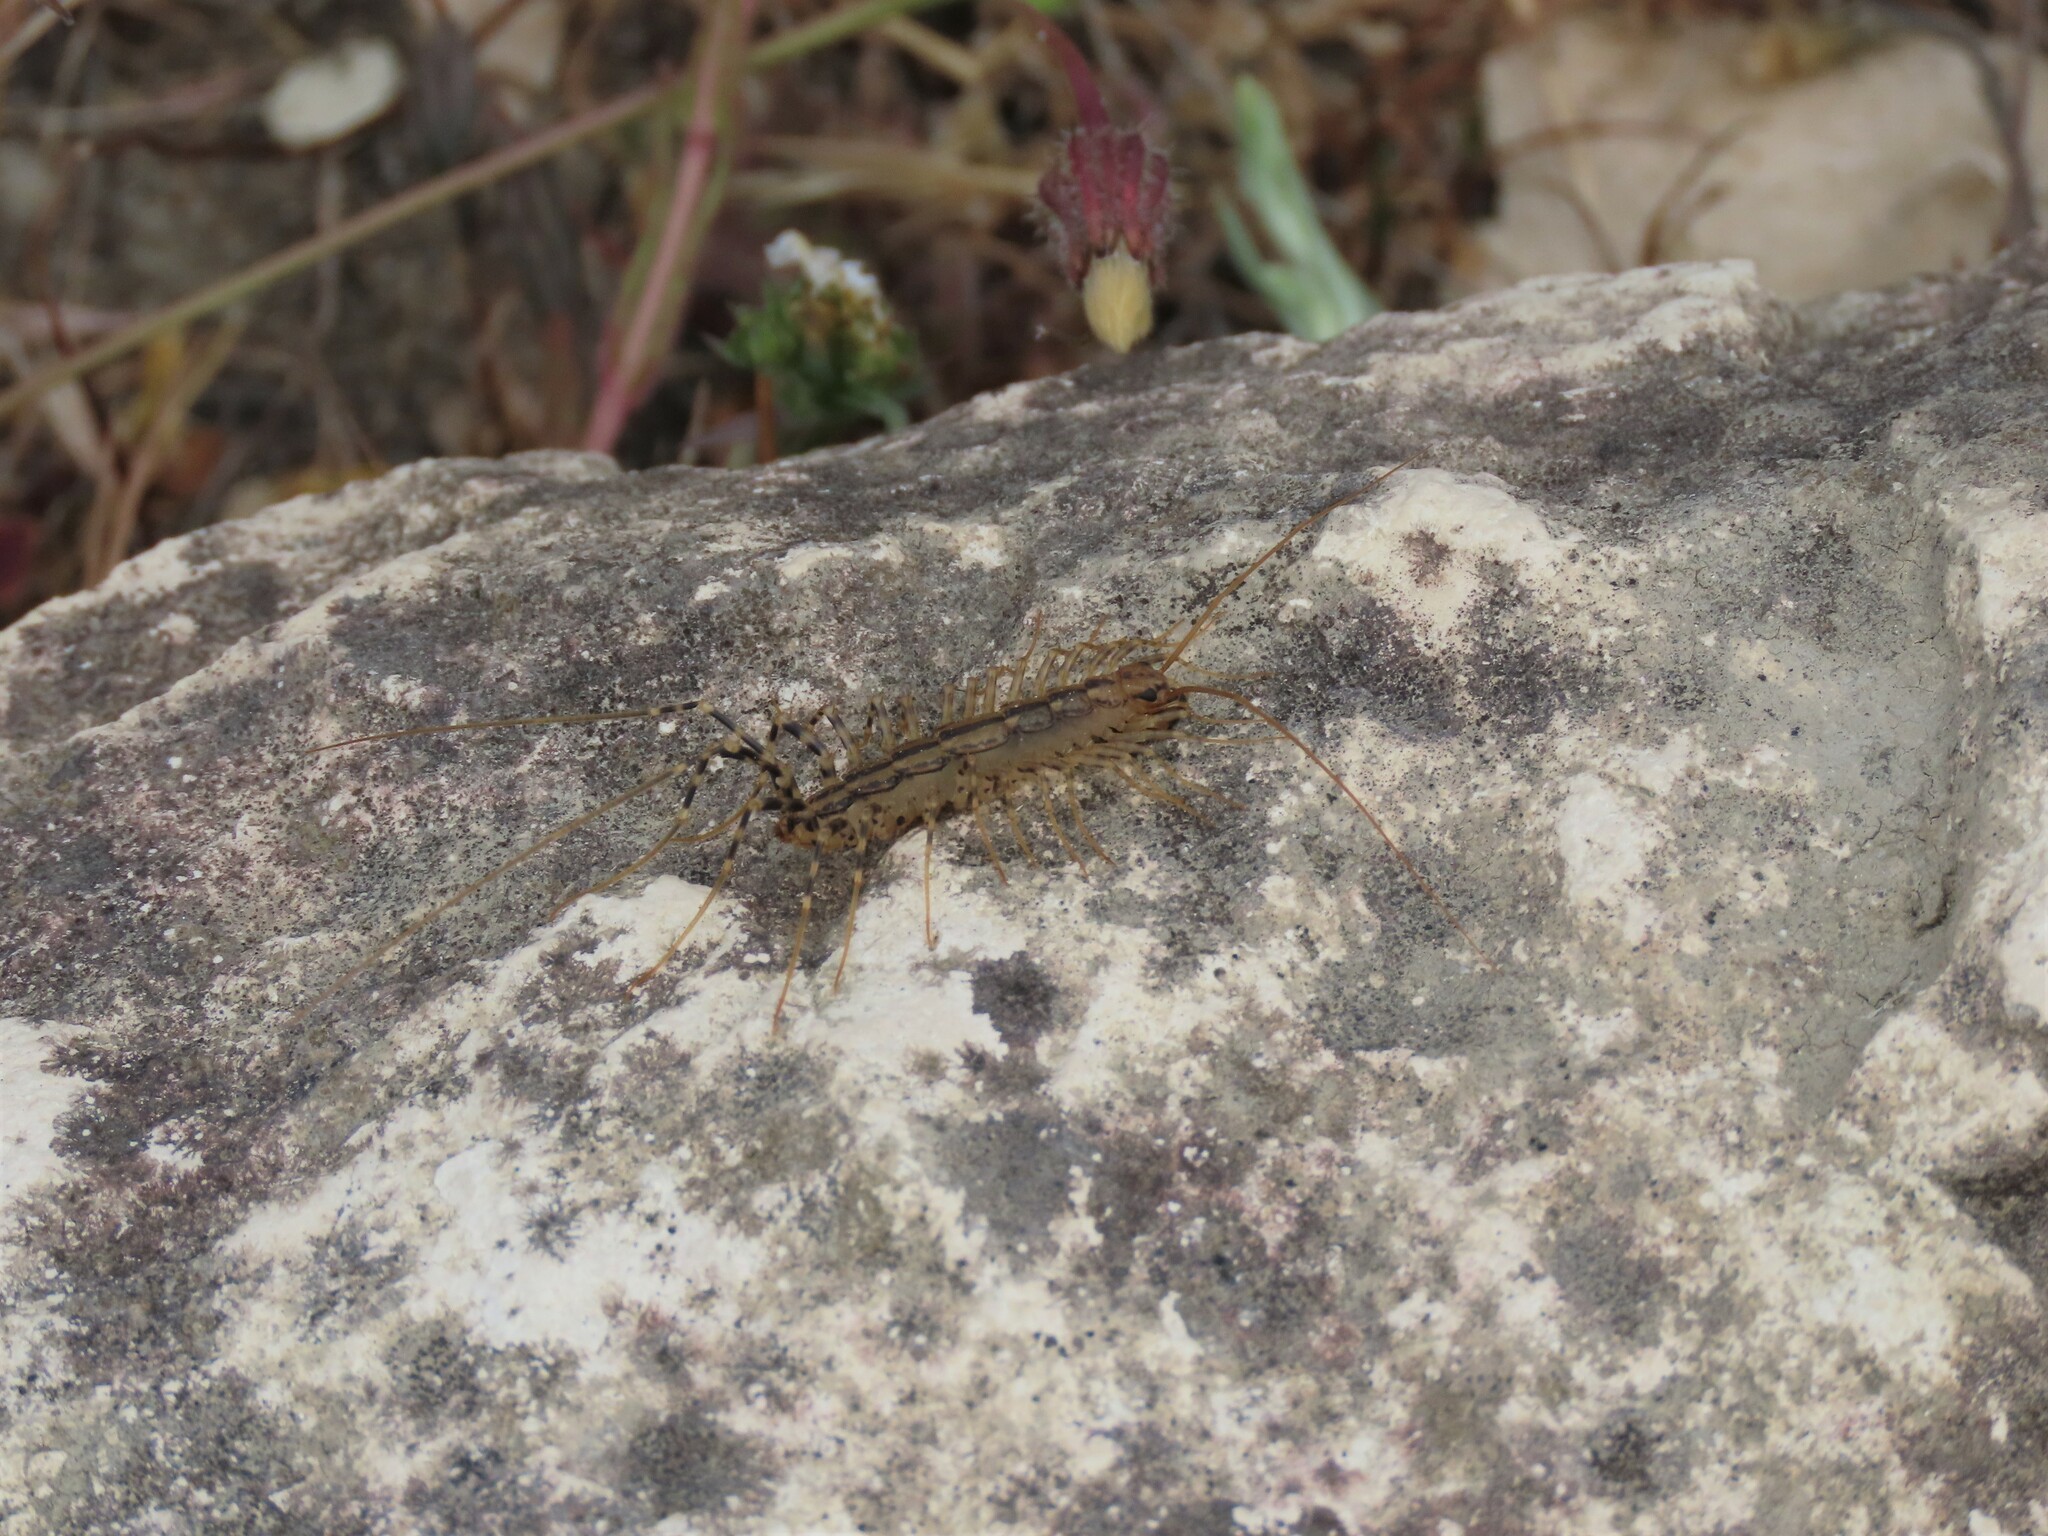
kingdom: Animalia
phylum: Arthropoda
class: Chilopoda
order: Scutigeromorpha
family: Scutigeridae
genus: Scutigera
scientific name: Scutigera coleoptrata
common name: House centipede
